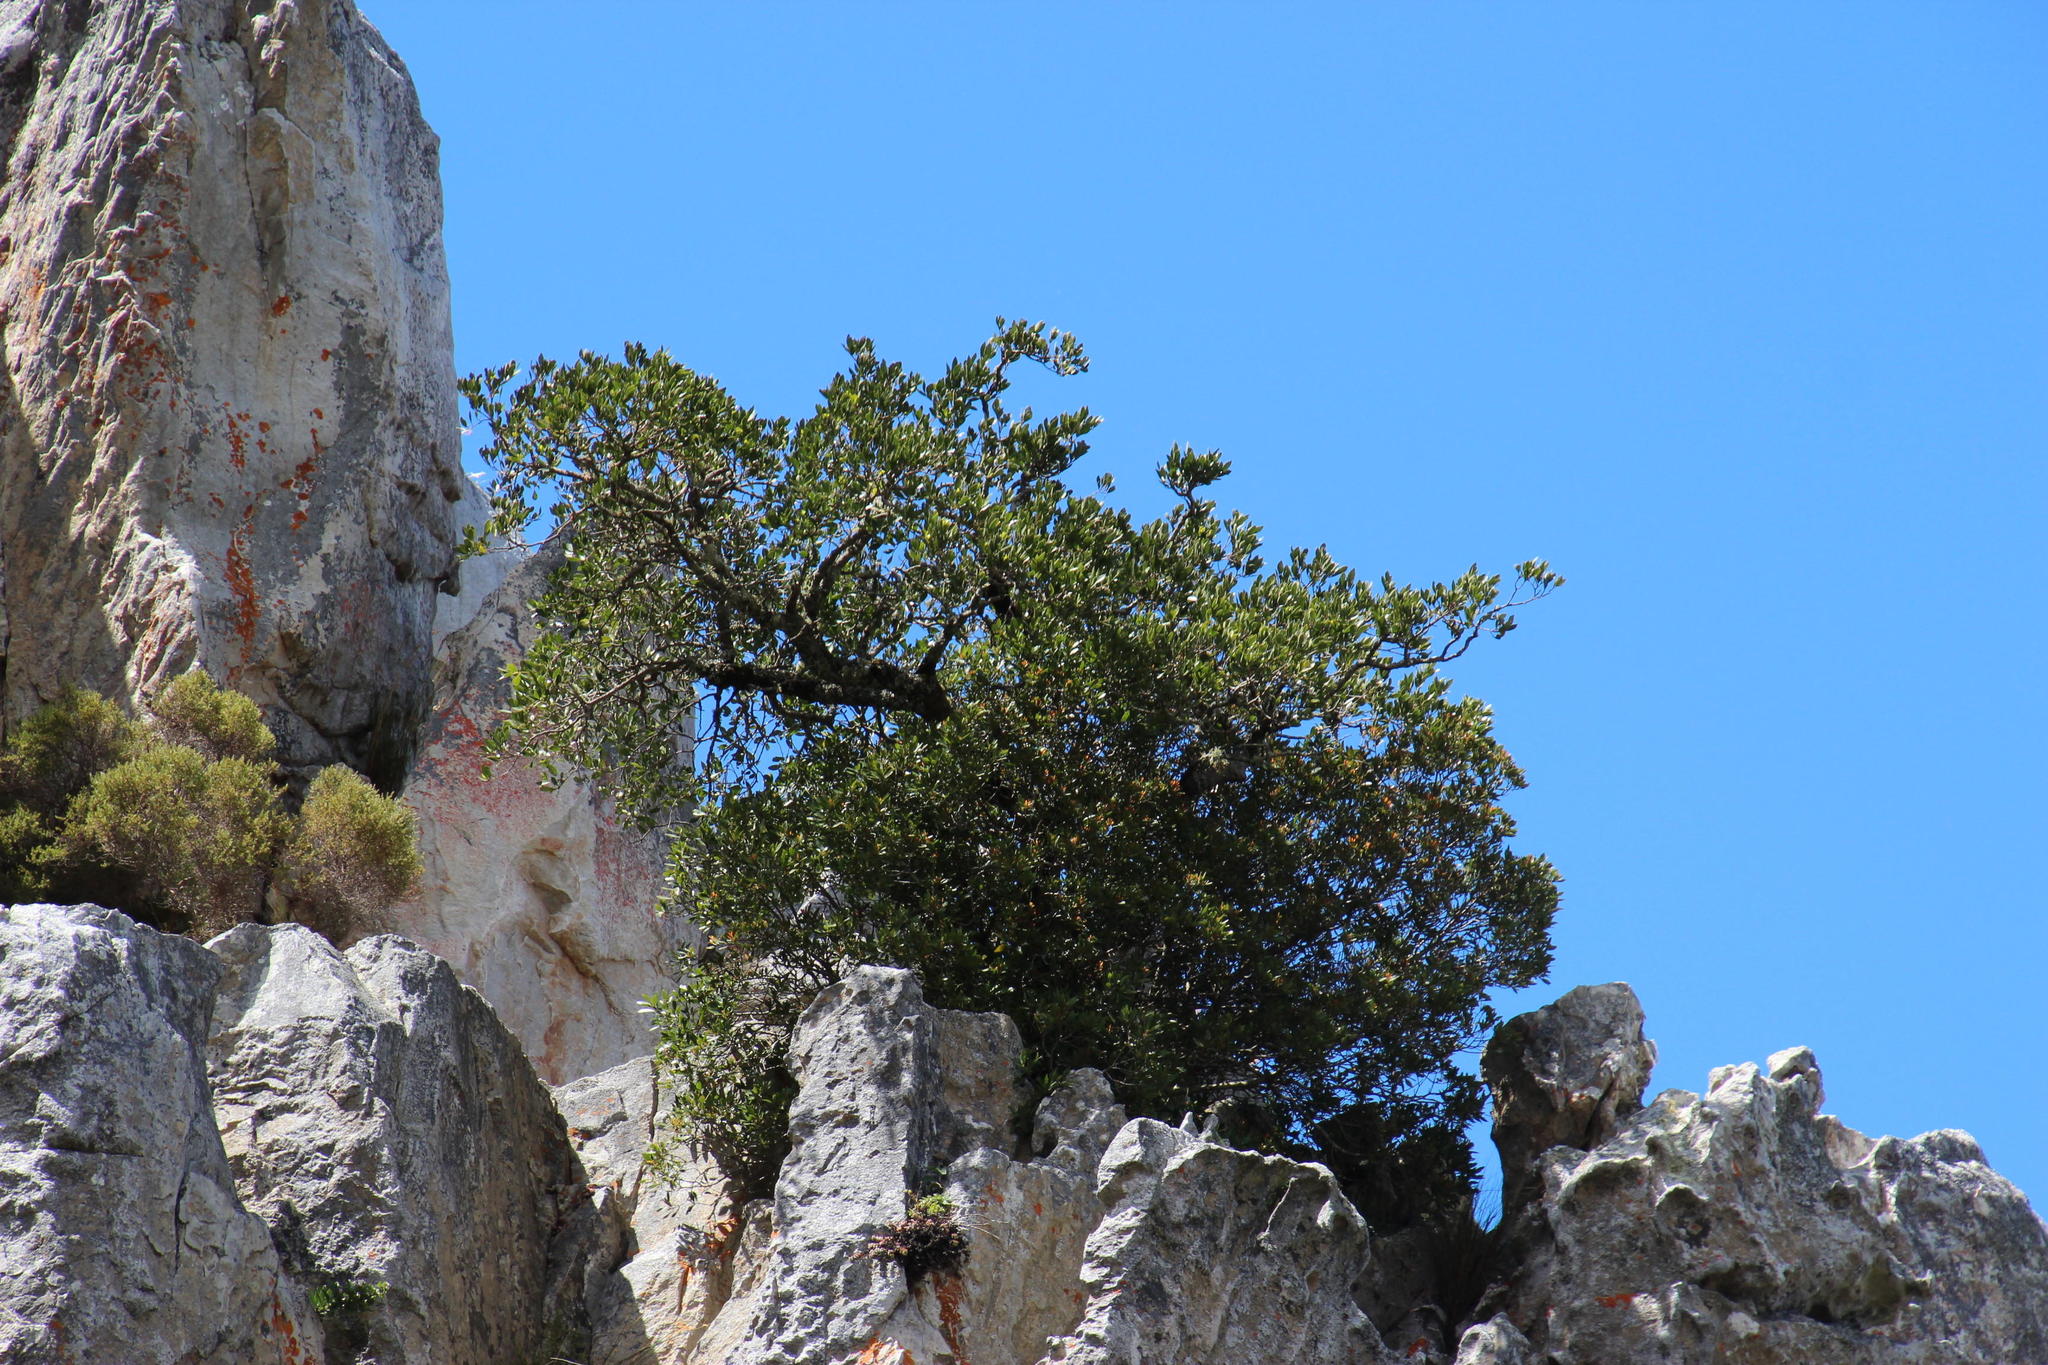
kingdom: Plantae
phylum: Tracheophyta
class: Magnoliopsida
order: Celastrales
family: Celastraceae
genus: Gymnosporia
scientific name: Gymnosporia laurina
